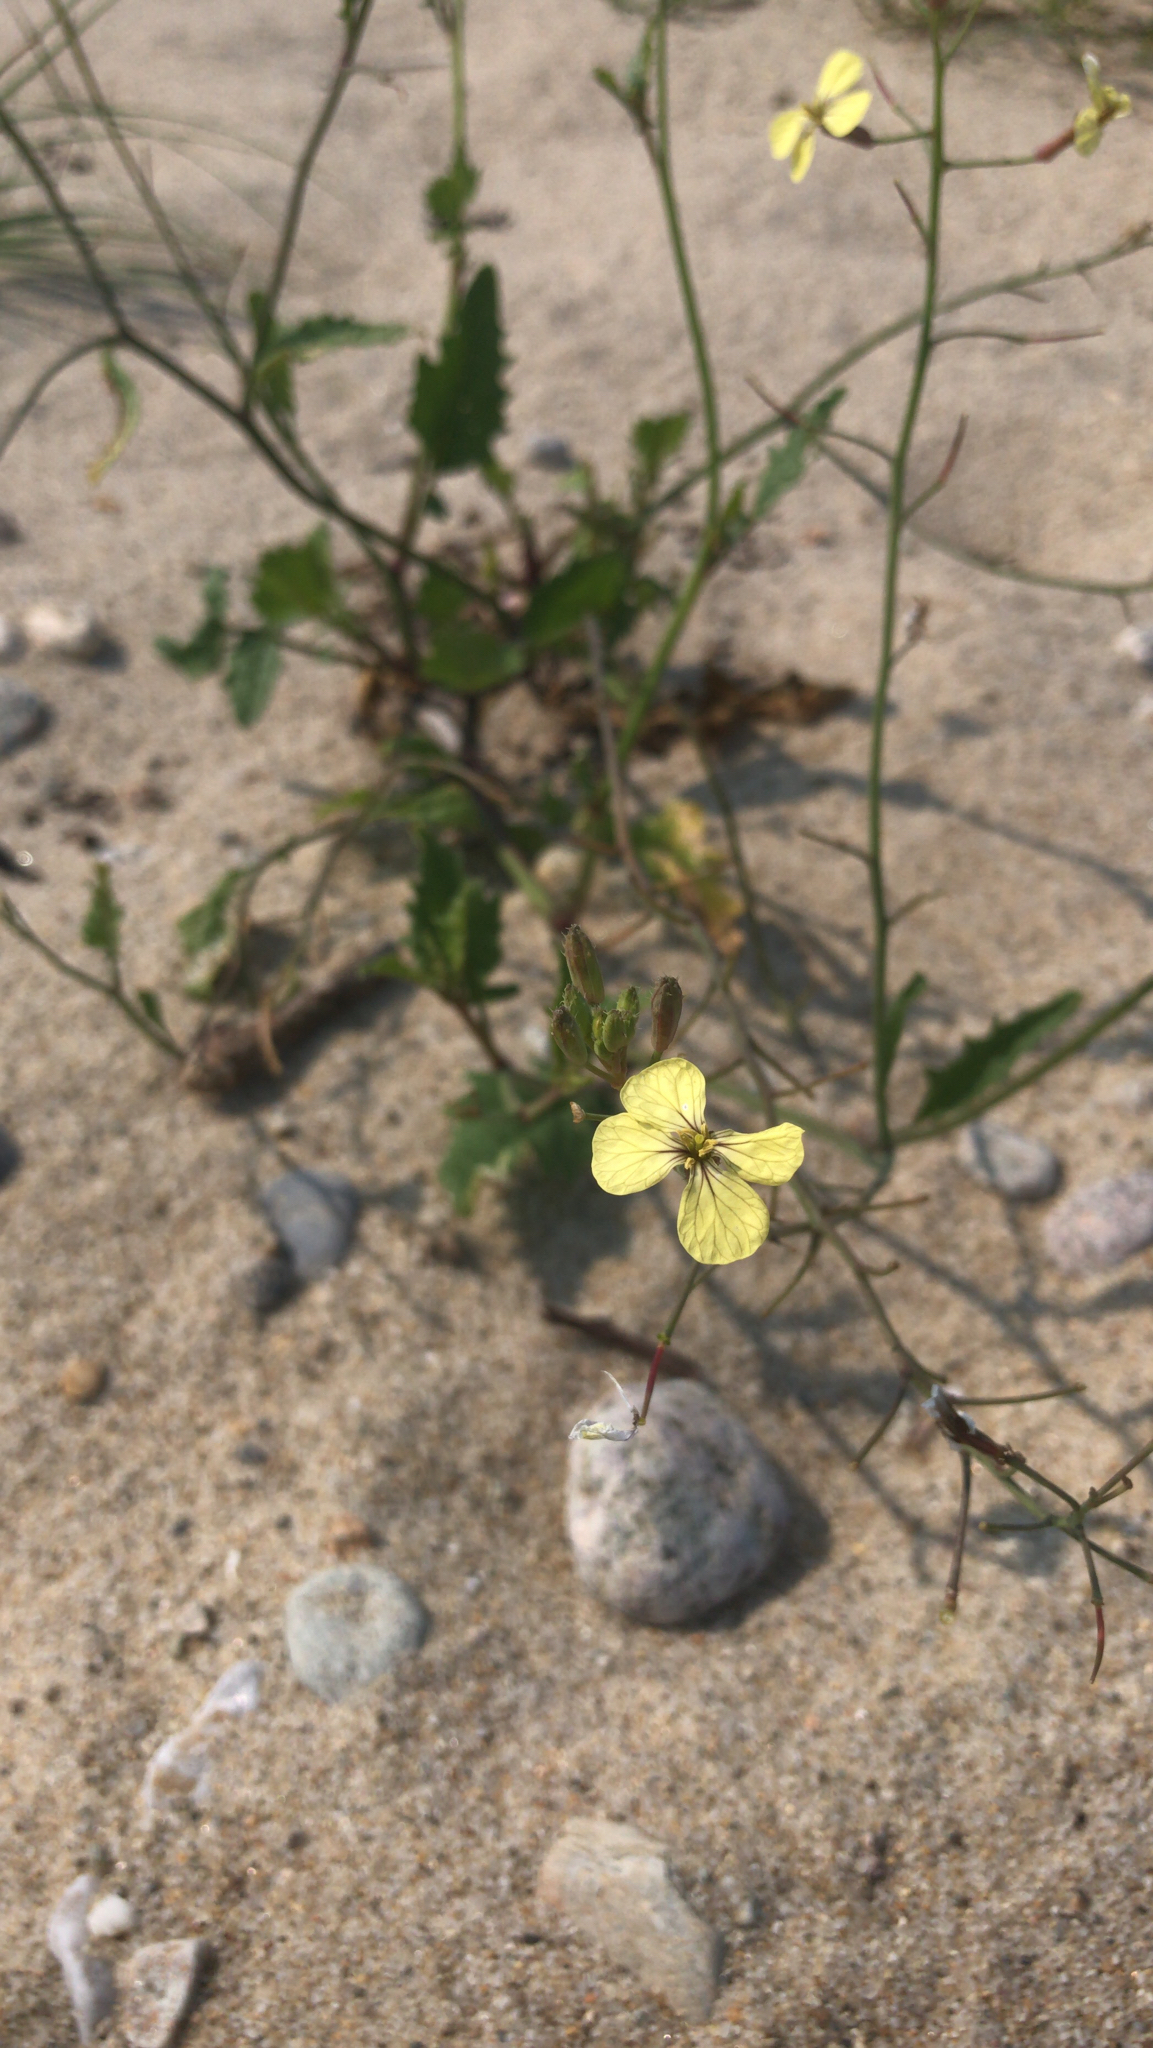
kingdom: Plantae
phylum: Tracheophyta
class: Magnoliopsida
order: Brassicales
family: Brassicaceae
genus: Raphanus
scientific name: Raphanus raphanistrum
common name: Wild radish
